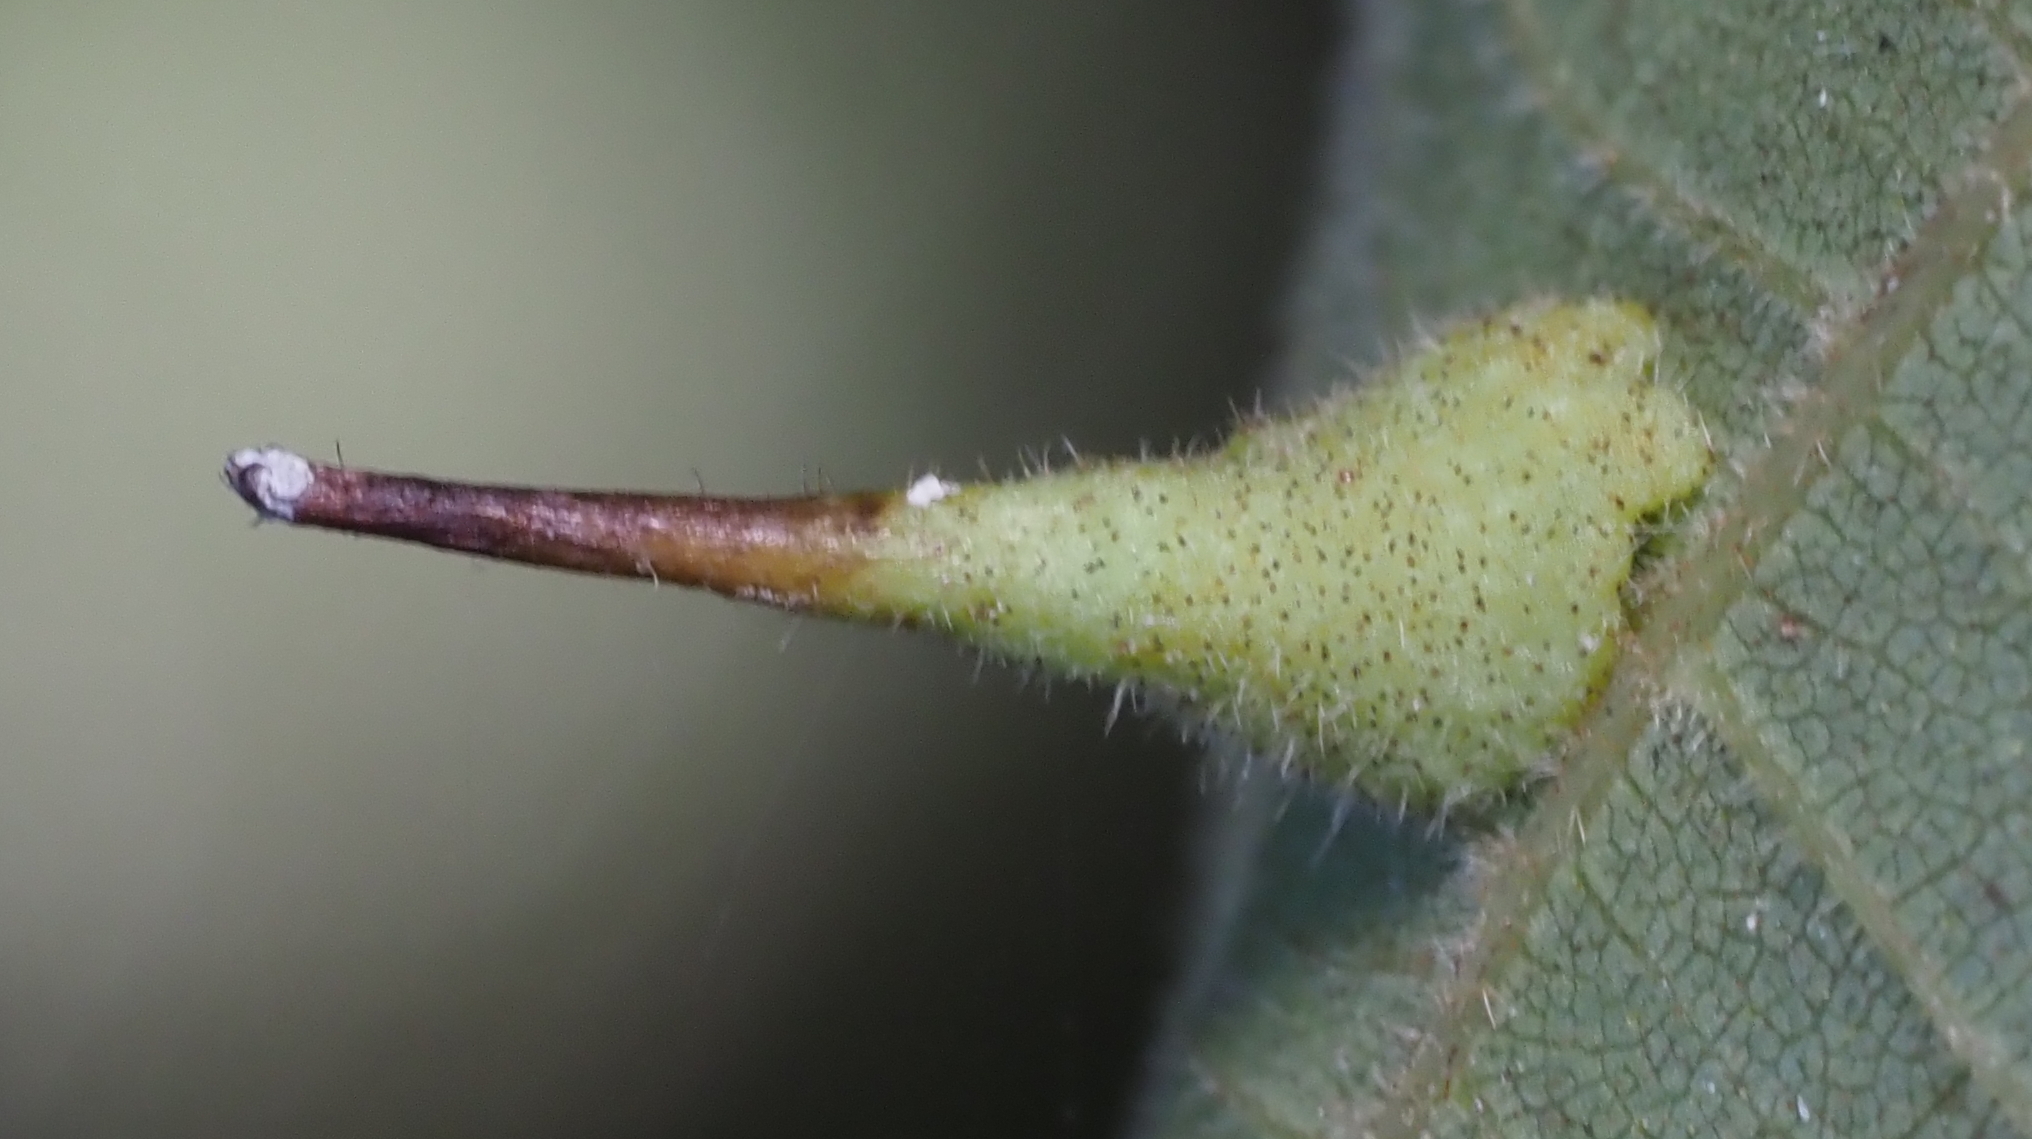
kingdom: Animalia
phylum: Arthropoda
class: Insecta
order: Diptera
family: Cecidomyiidae
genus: Caryomyia
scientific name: Caryomyia inclinata
